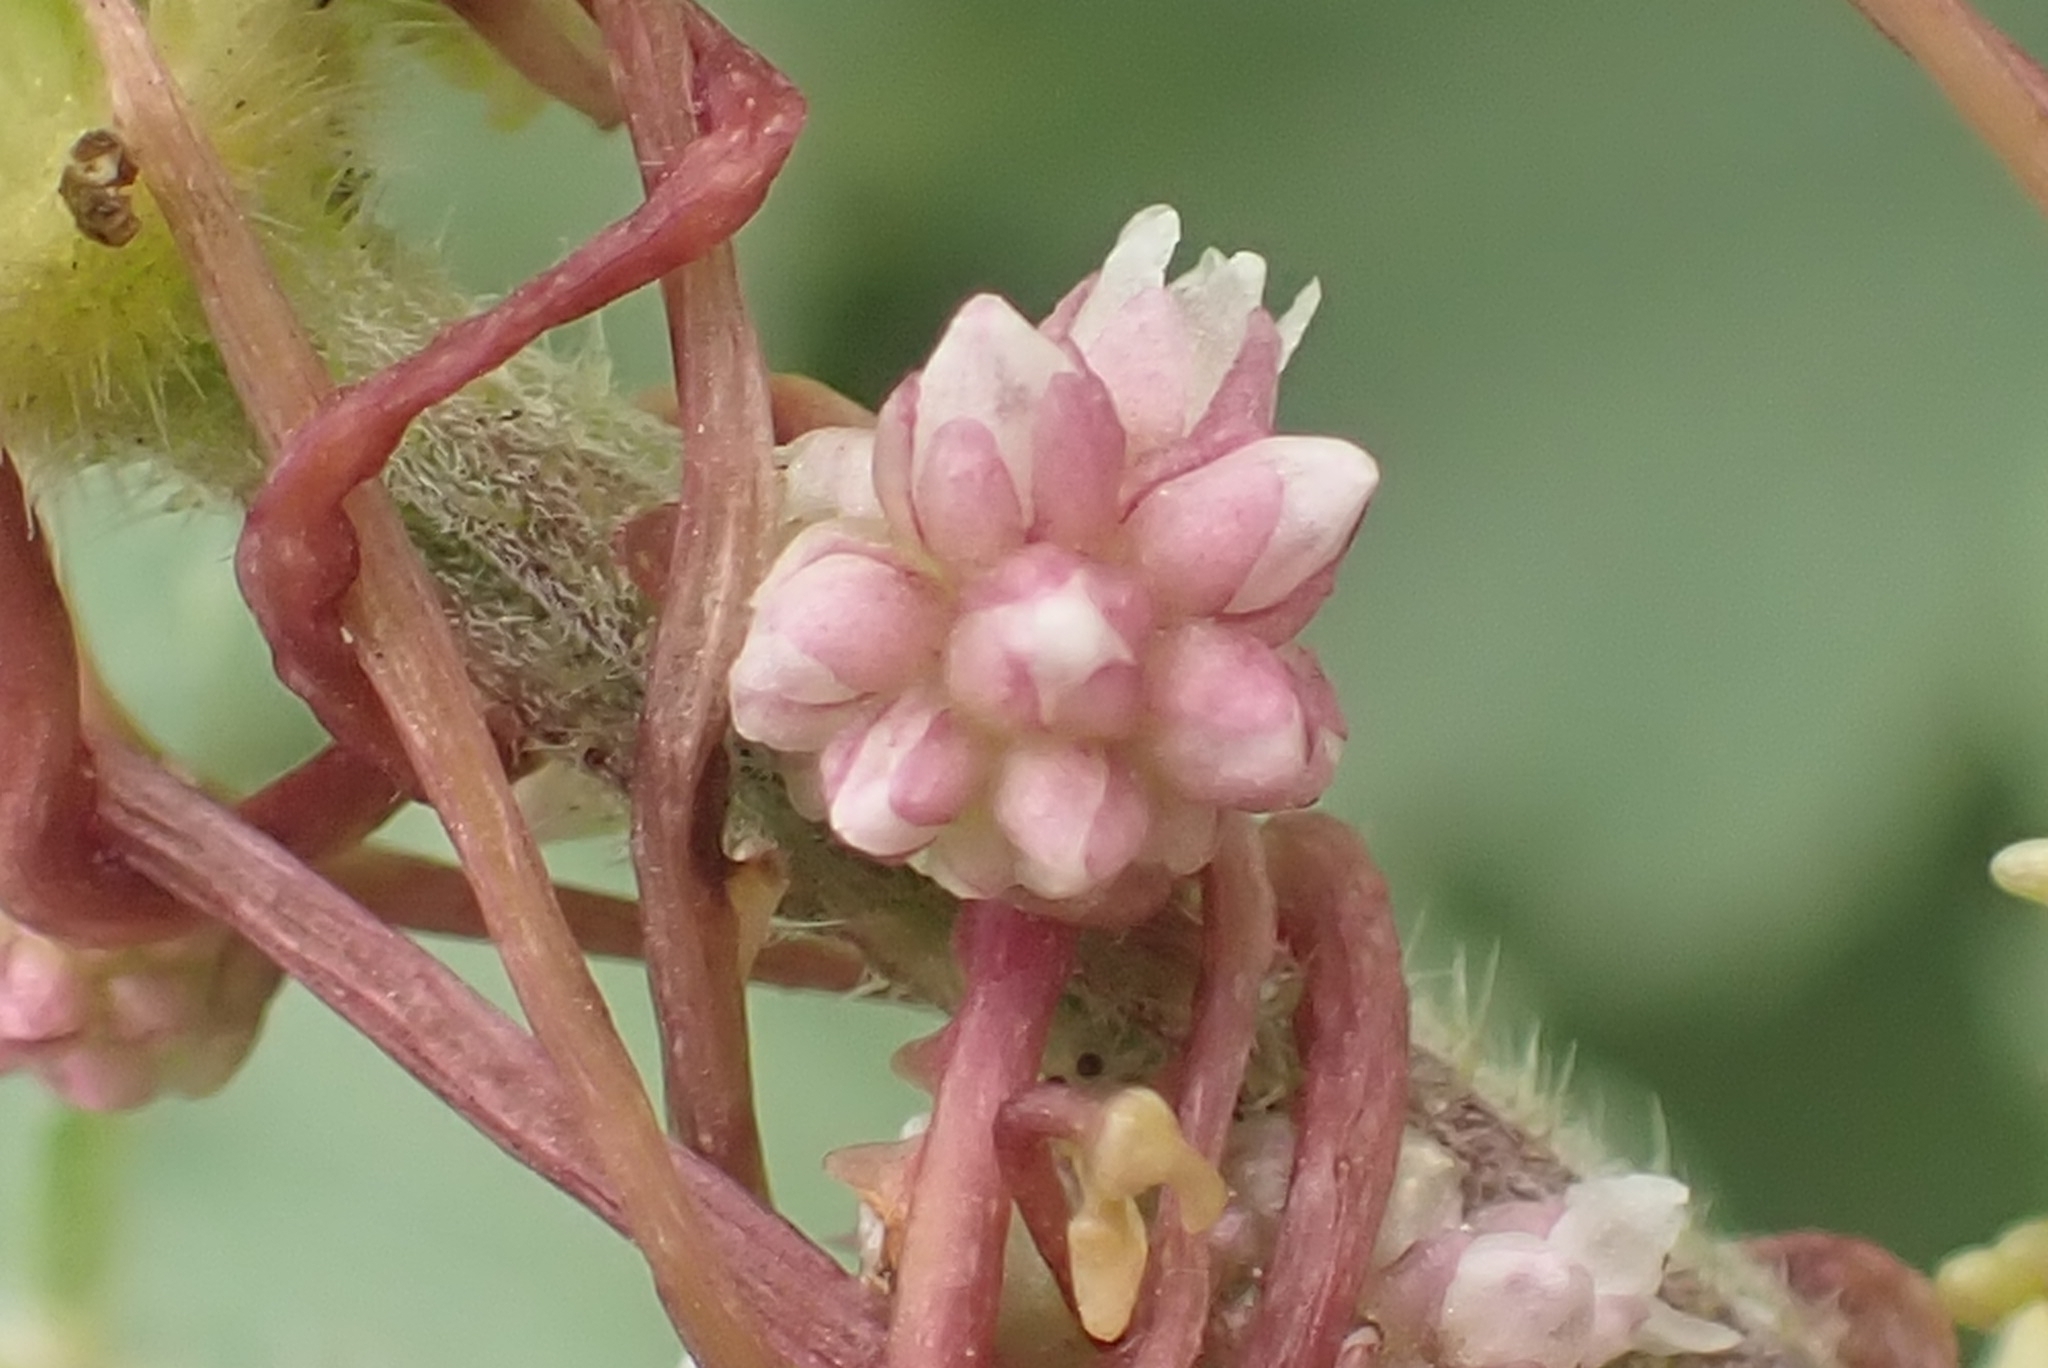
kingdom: Plantae
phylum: Tracheophyta
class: Magnoliopsida
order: Solanales
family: Convolvulaceae
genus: Cuscuta
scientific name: Cuscuta europaea
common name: Greater dodder
